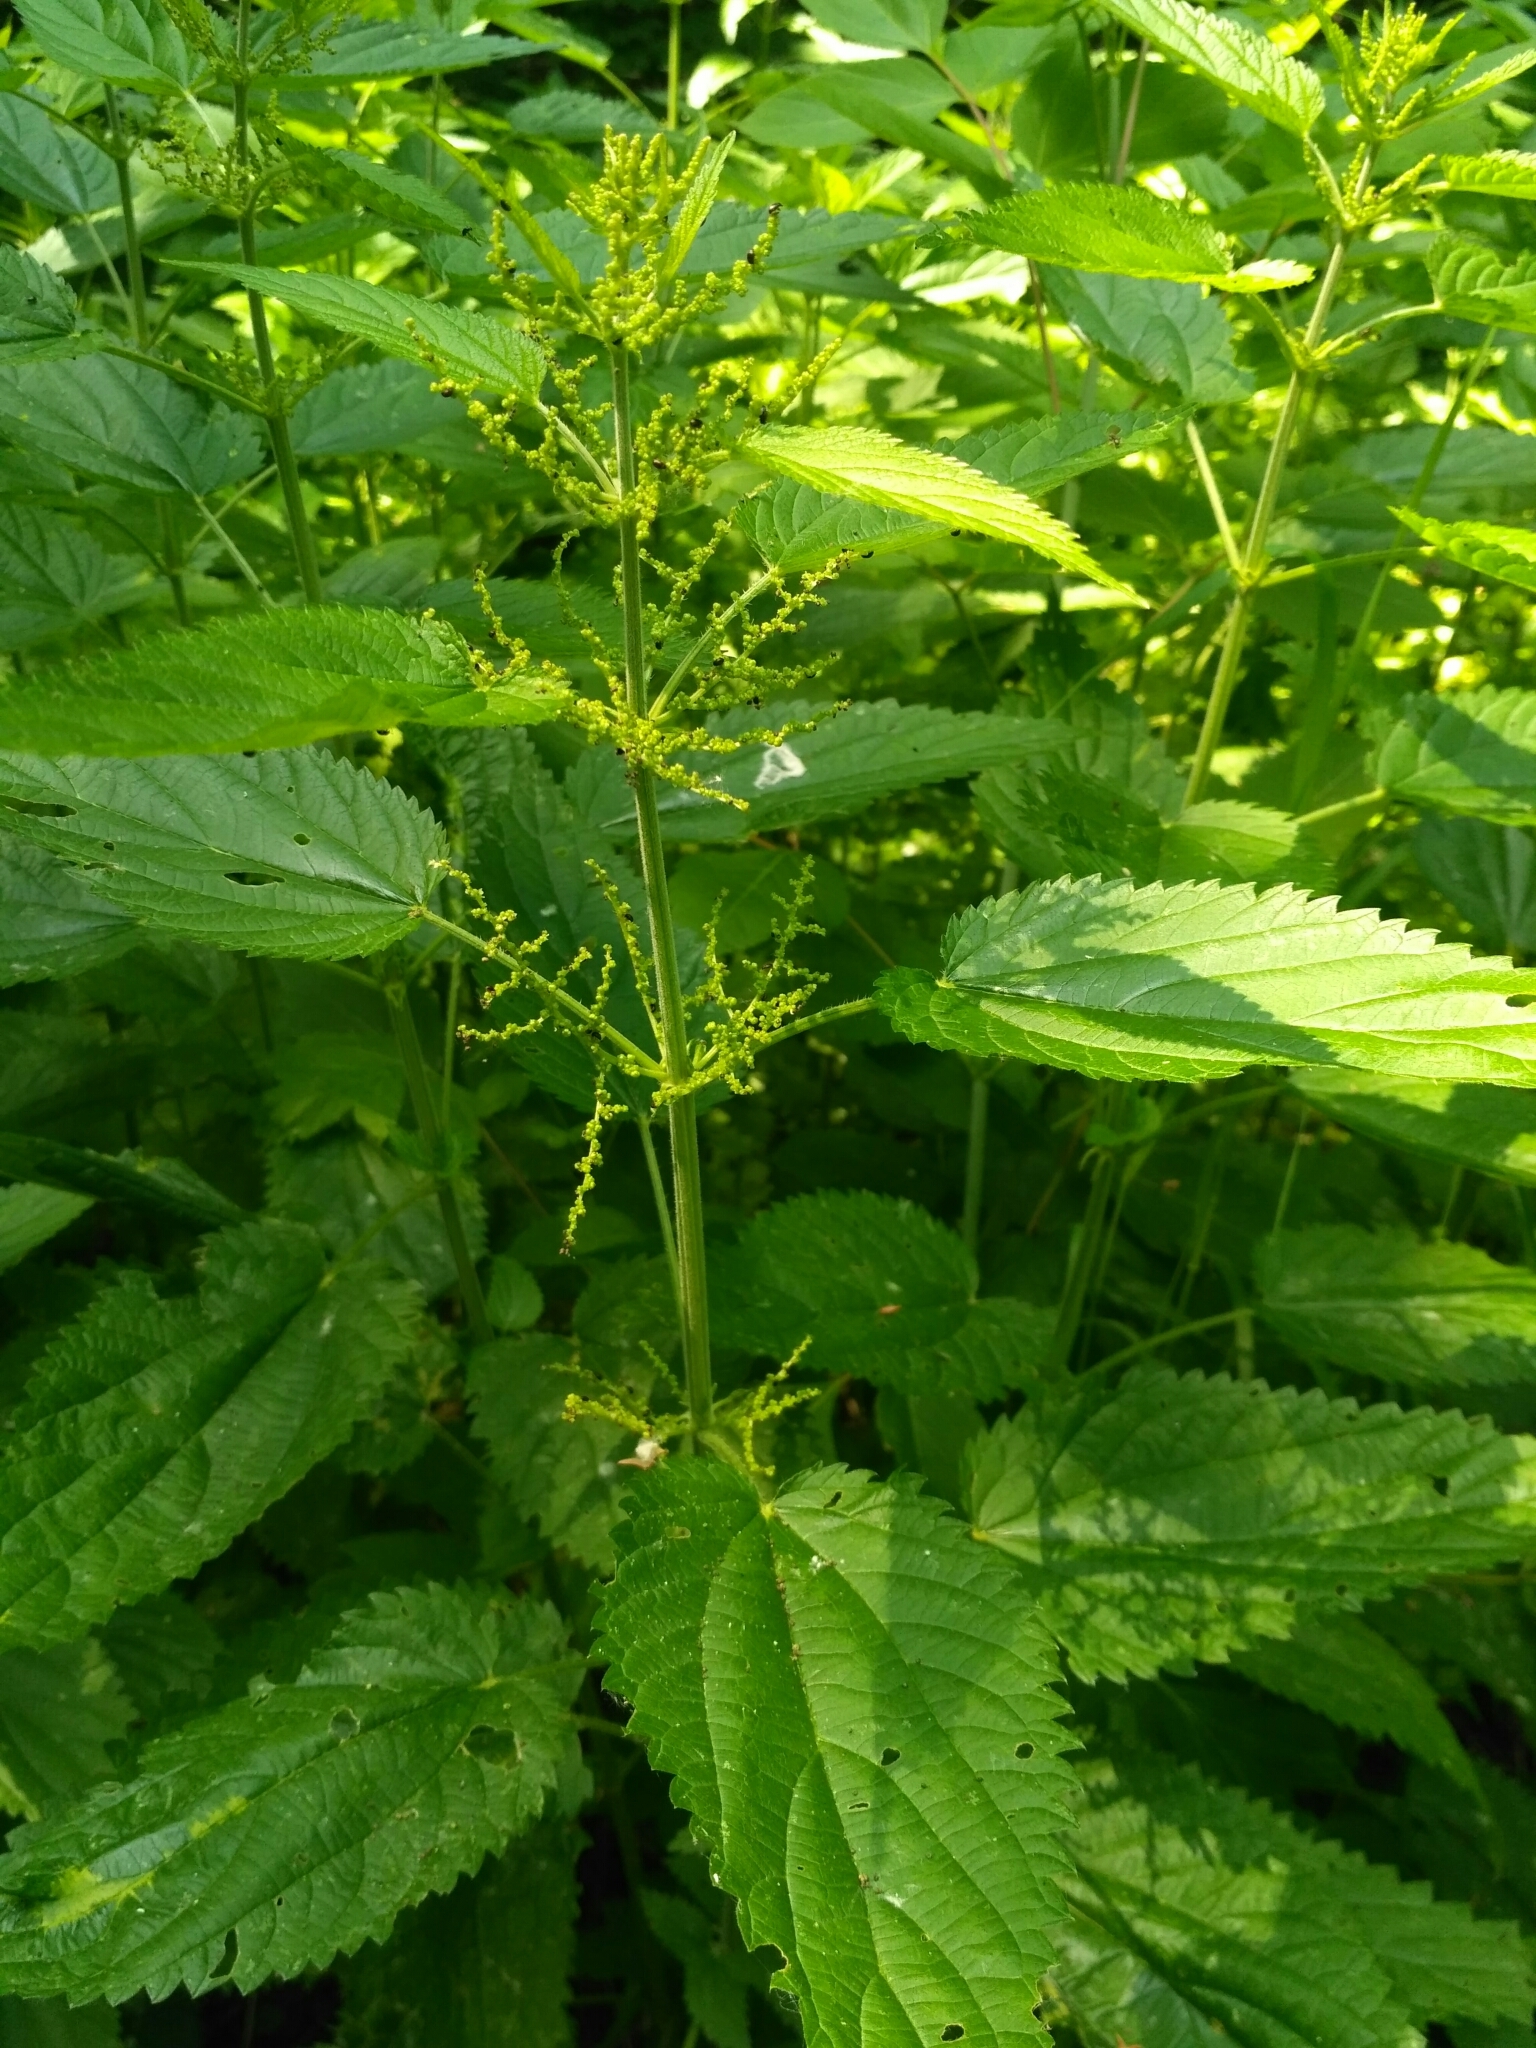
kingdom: Plantae
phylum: Tracheophyta
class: Magnoliopsida
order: Rosales
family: Urticaceae
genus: Urtica
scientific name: Urtica dioica
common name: Common nettle
